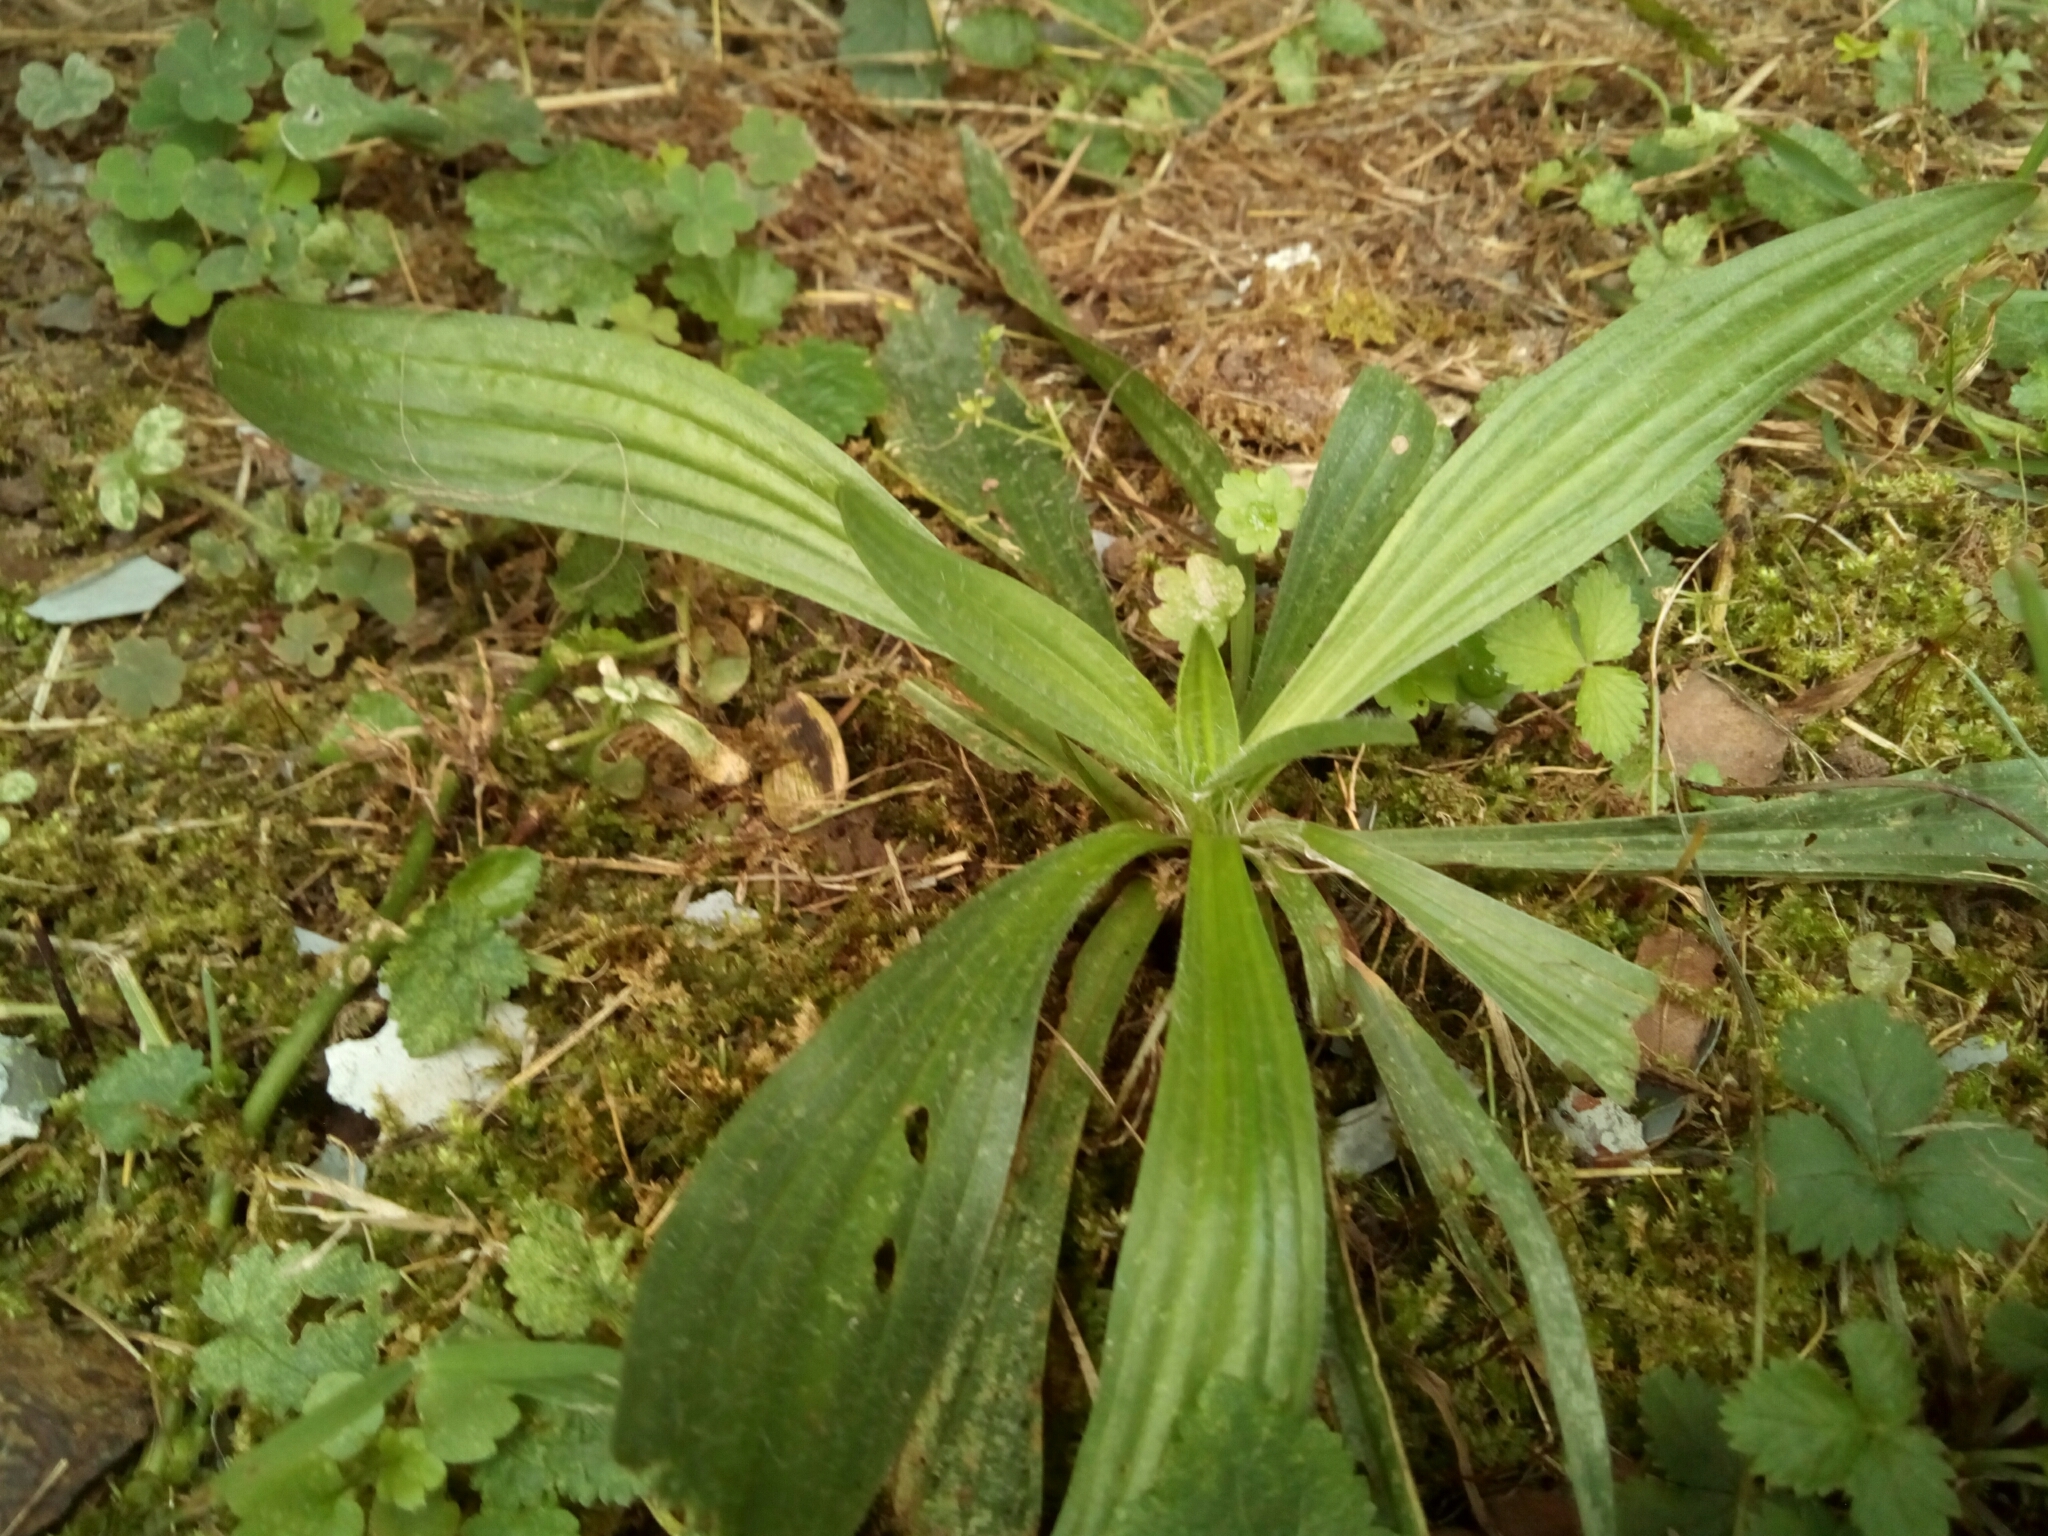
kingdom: Plantae
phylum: Tracheophyta
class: Magnoliopsida
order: Lamiales
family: Plantaginaceae
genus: Plantago
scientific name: Plantago lanceolata
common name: Ribwort plantain
